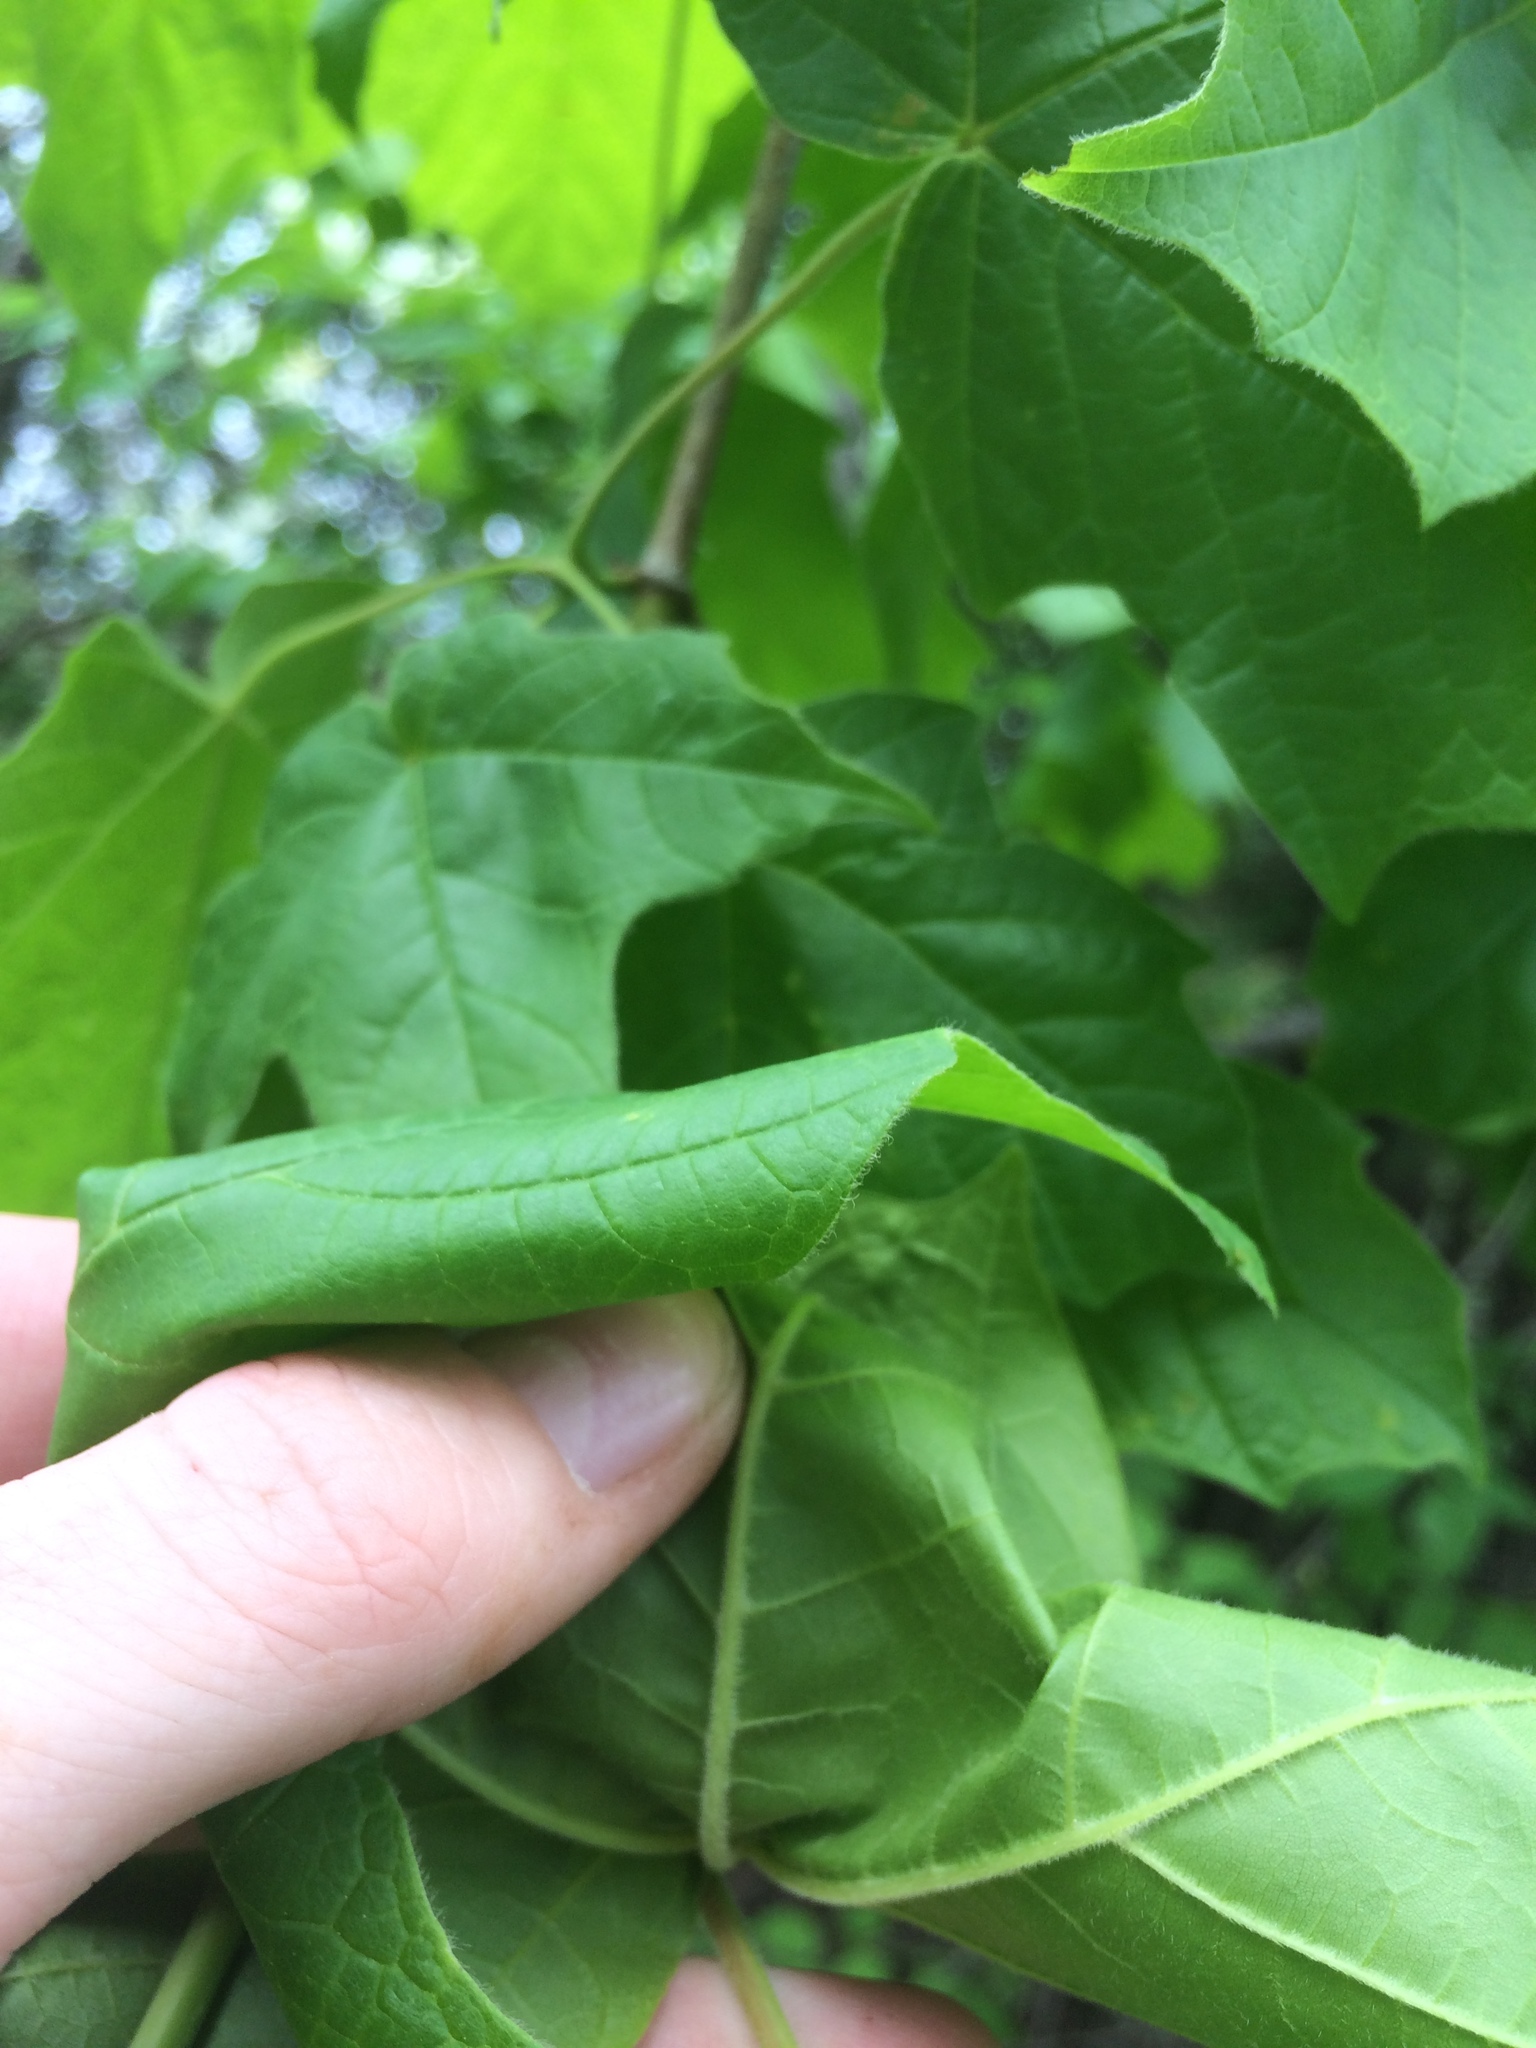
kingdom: Plantae
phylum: Tracheophyta
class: Magnoliopsida
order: Sapindales
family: Sapindaceae
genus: Acer
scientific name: Acer nigrum
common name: Black maple
